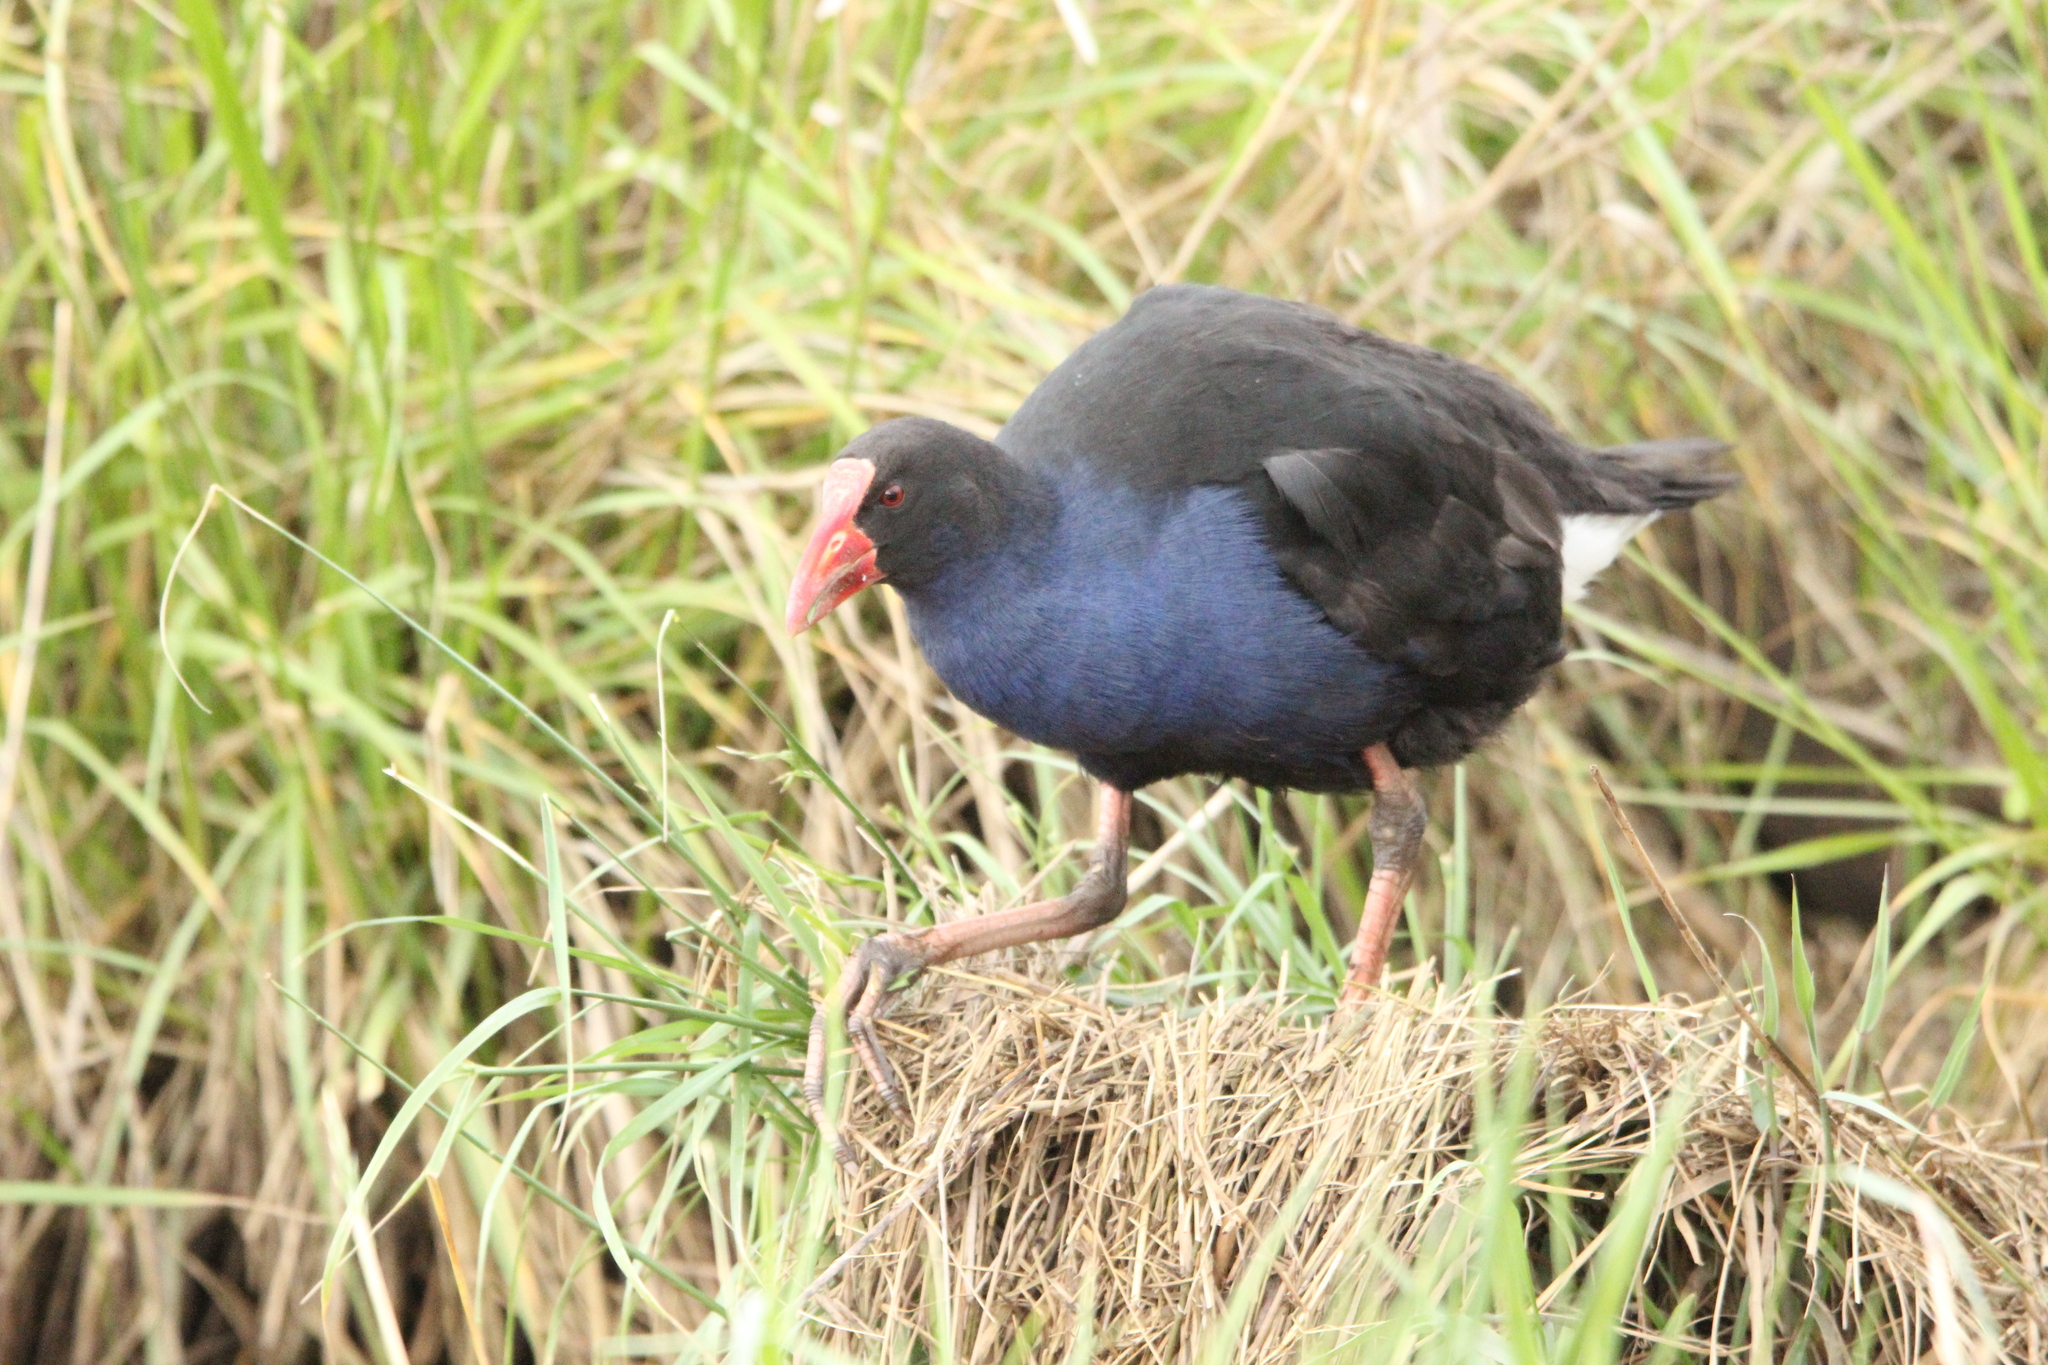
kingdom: Animalia
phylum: Chordata
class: Aves
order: Gruiformes
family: Rallidae
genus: Porphyrio
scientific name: Porphyrio melanotus
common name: Australasian swamphen
